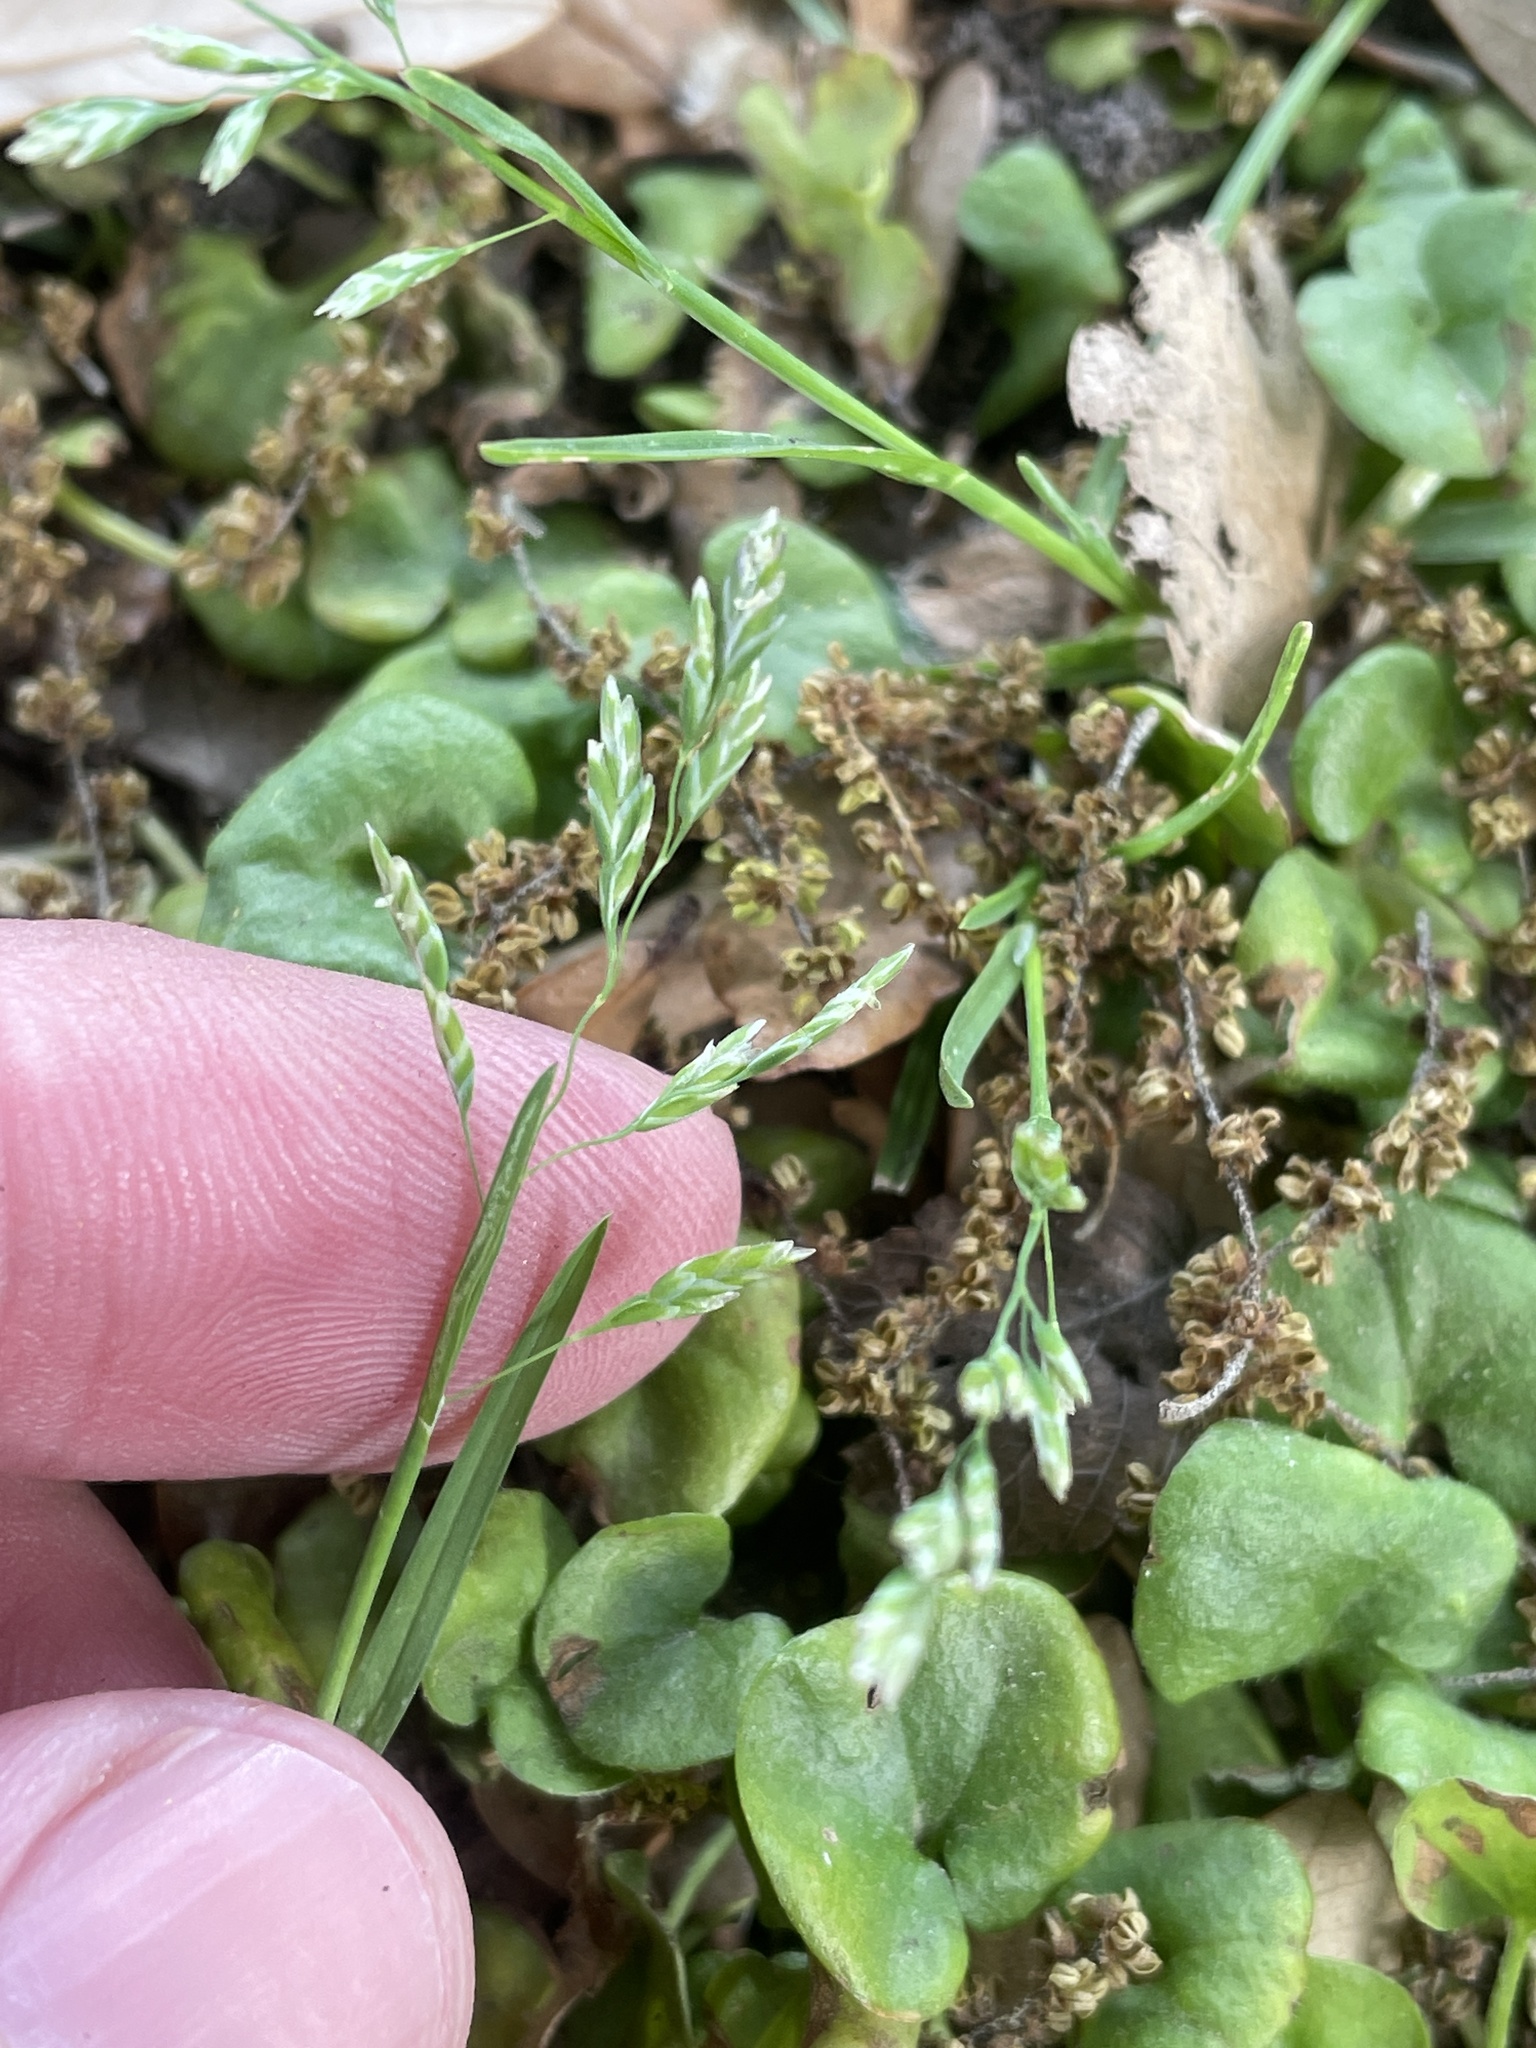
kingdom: Plantae
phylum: Tracheophyta
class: Liliopsida
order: Poales
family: Poaceae
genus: Poa
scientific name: Poa annua
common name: Annual bluegrass
